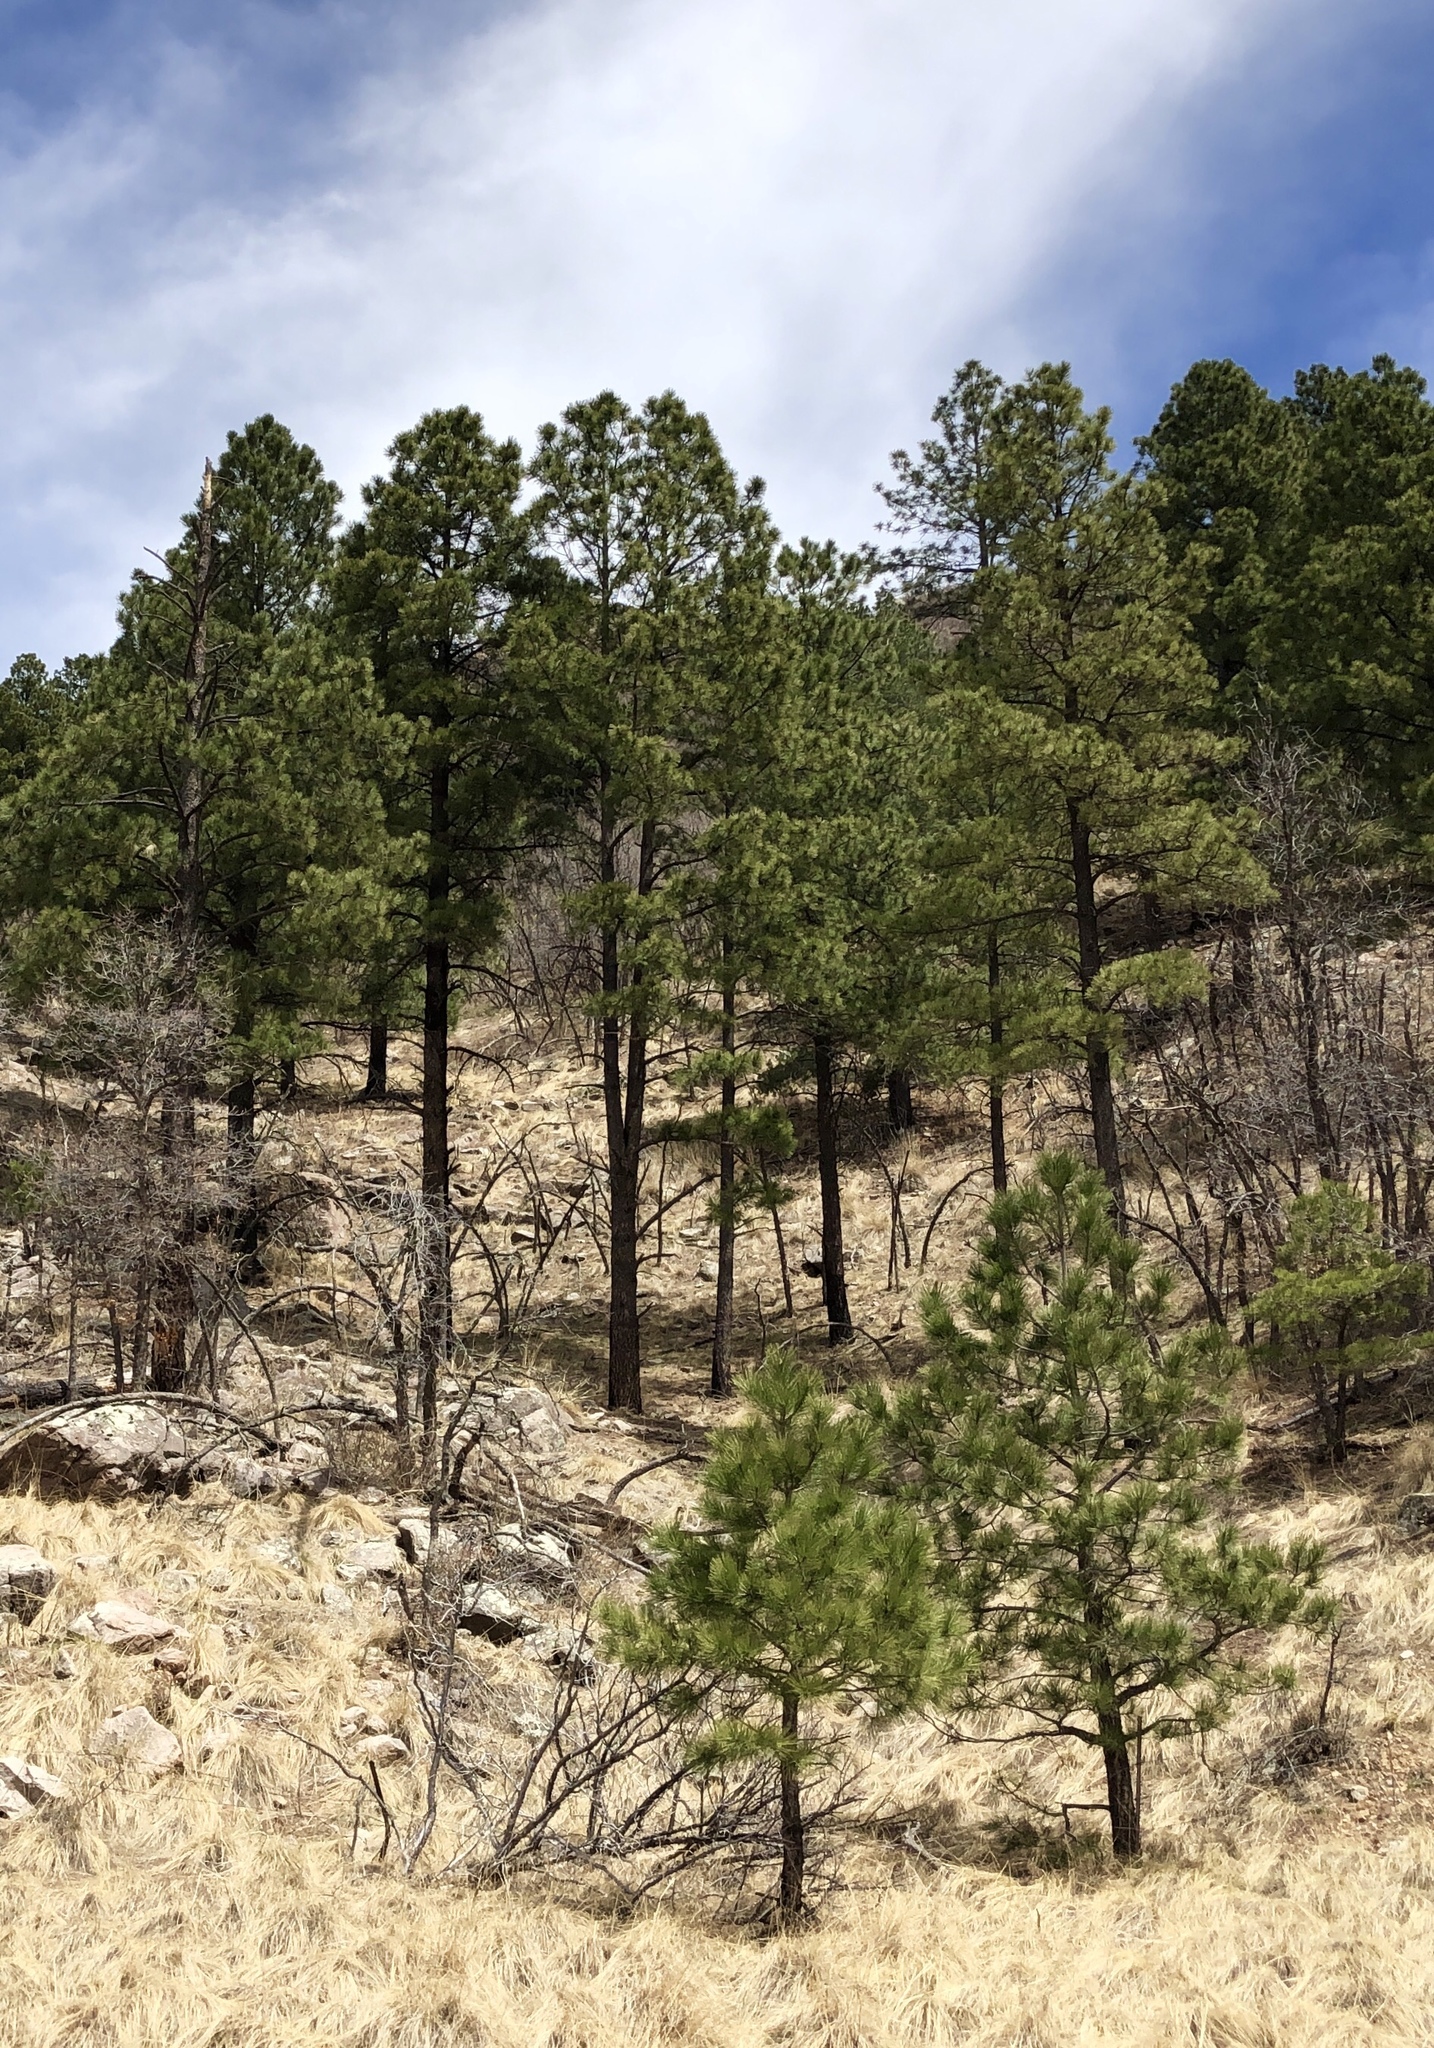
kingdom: Plantae
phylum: Tracheophyta
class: Pinopsida
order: Pinales
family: Pinaceae
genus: Pinus
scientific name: Pinus ponderosa
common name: Western yellow-pine
